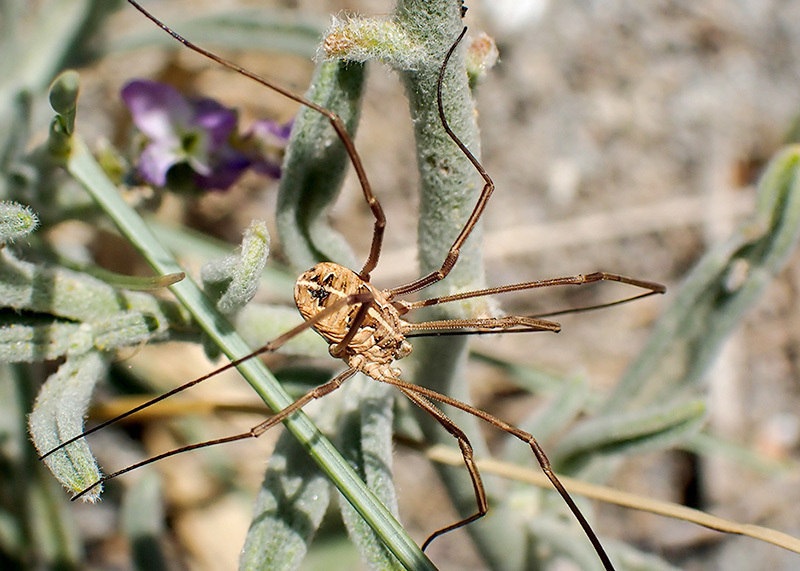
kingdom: Animalia
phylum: Arthropoda
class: Arachnida
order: Opiliones
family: Phalangiidae
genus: Metaphalangium
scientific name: Metaphalangium cirtanum
